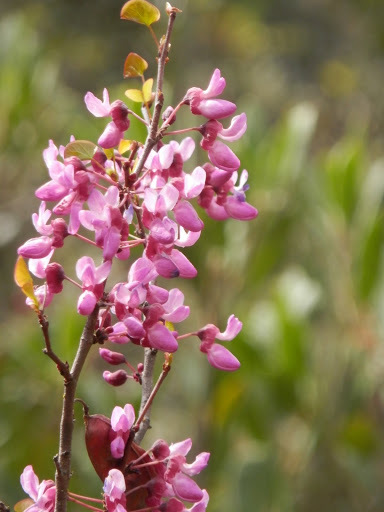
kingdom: Plantae
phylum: Tracheophyta
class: Magnoliopsida
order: Fabales
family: Fabaceae
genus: Cercis
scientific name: Cercis occidentalis
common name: California redbud
